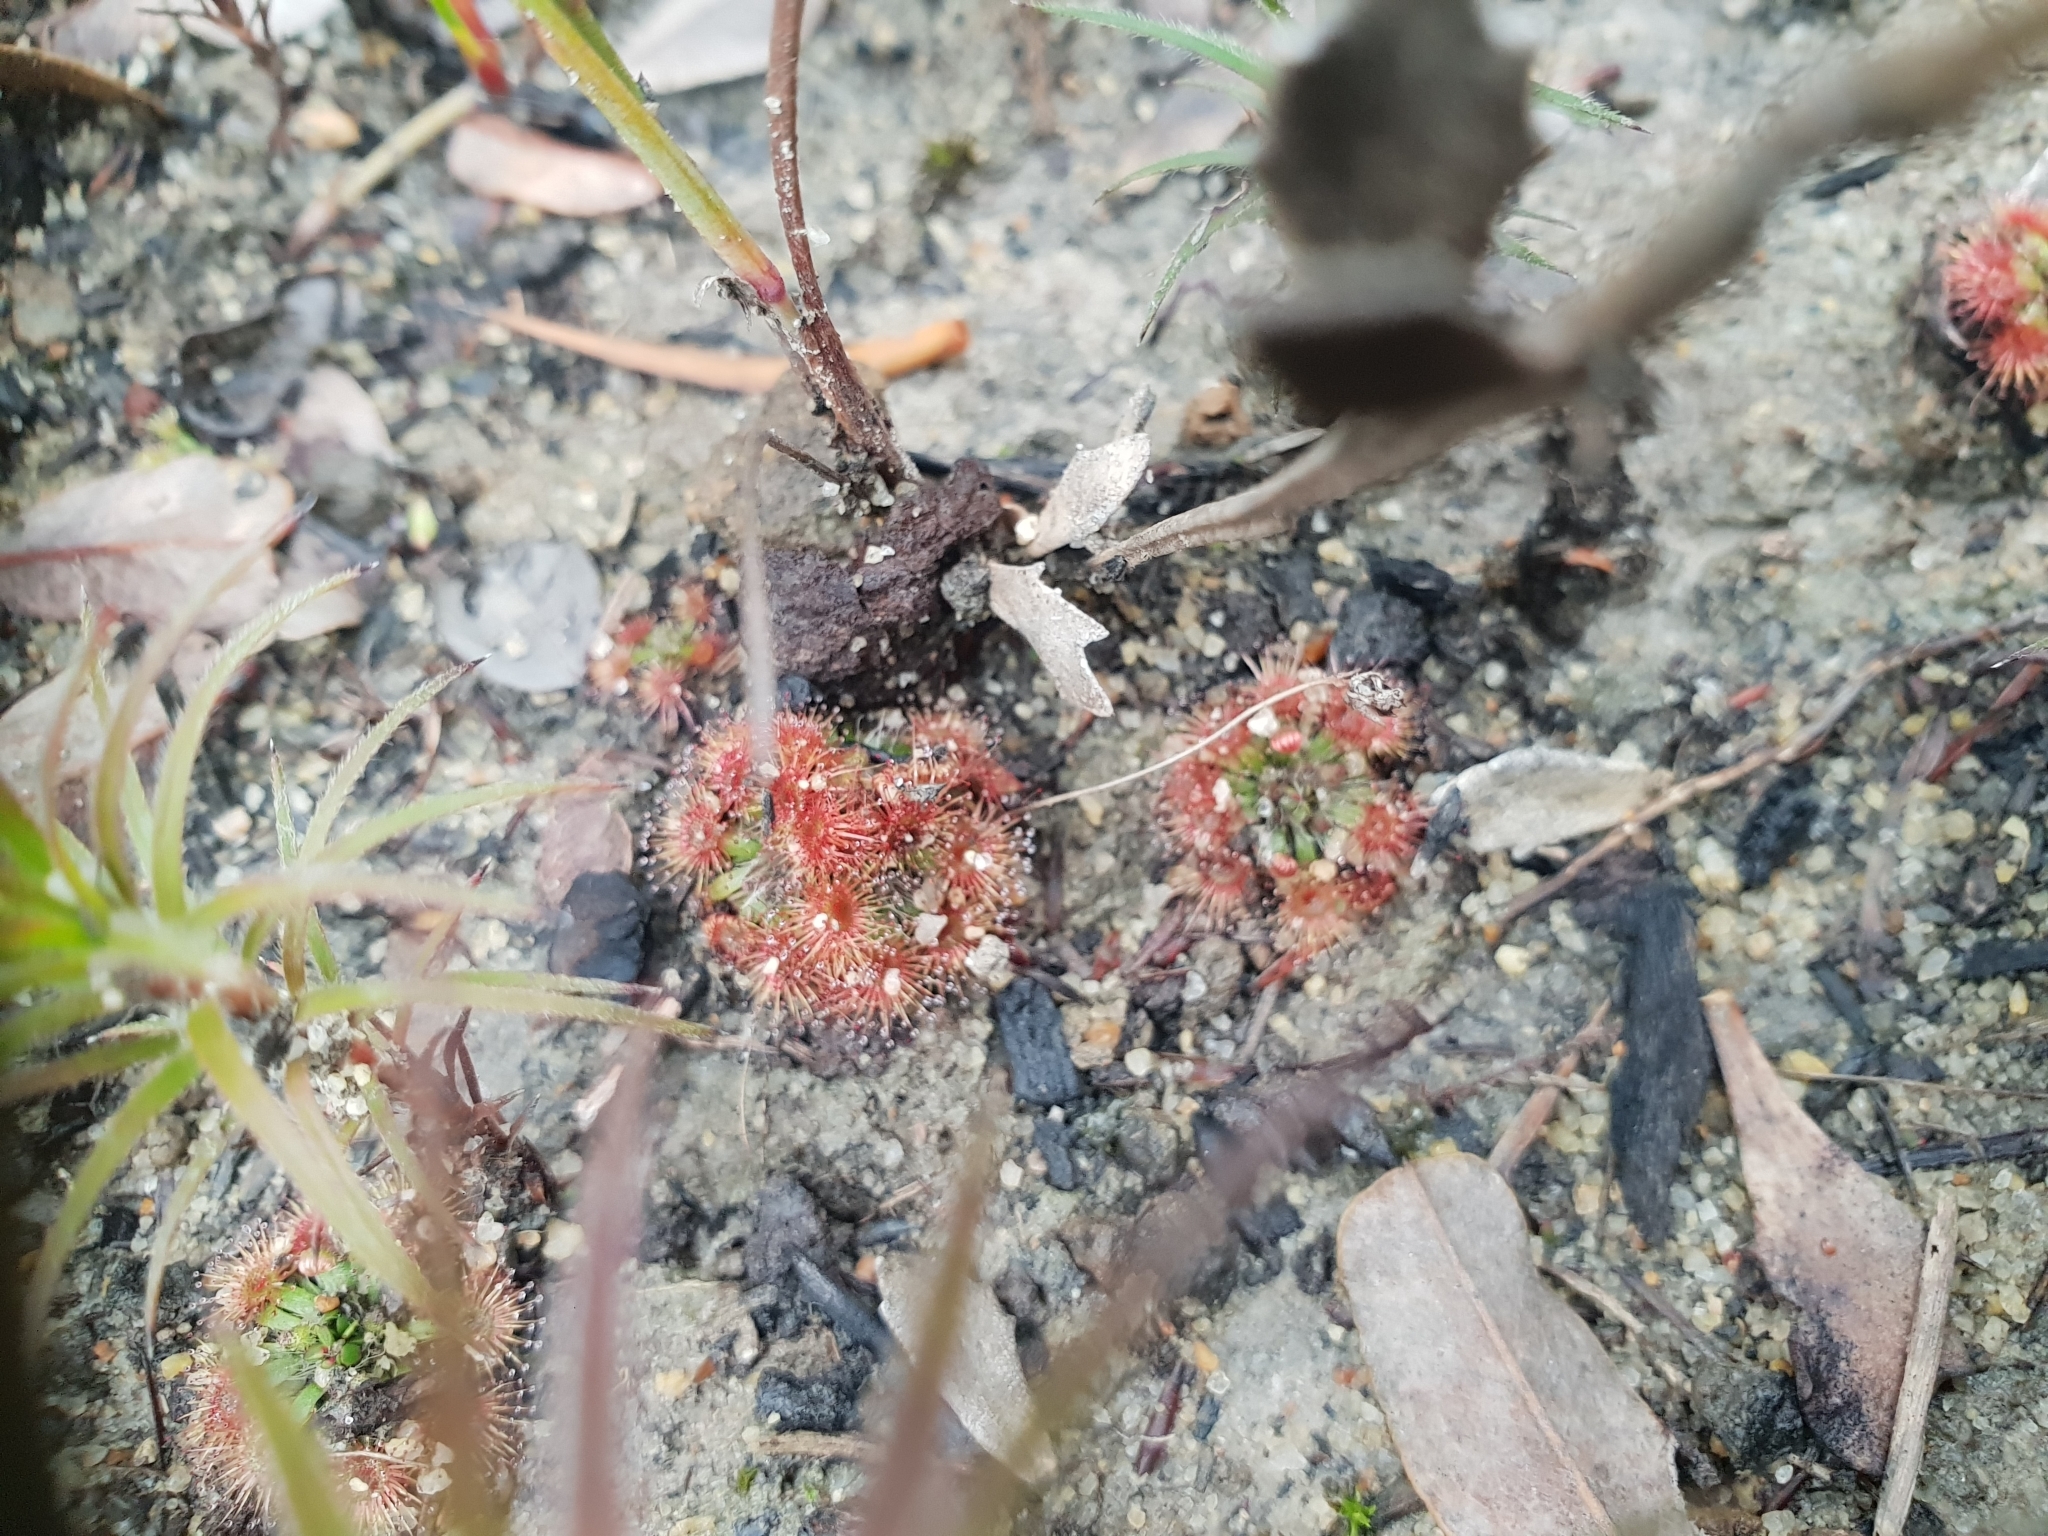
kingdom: Plantae
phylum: Tracheophyta
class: Magnoliopsida
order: Caryophyllales
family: Droseraceae
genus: Drosera
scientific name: Drosera platystigma
